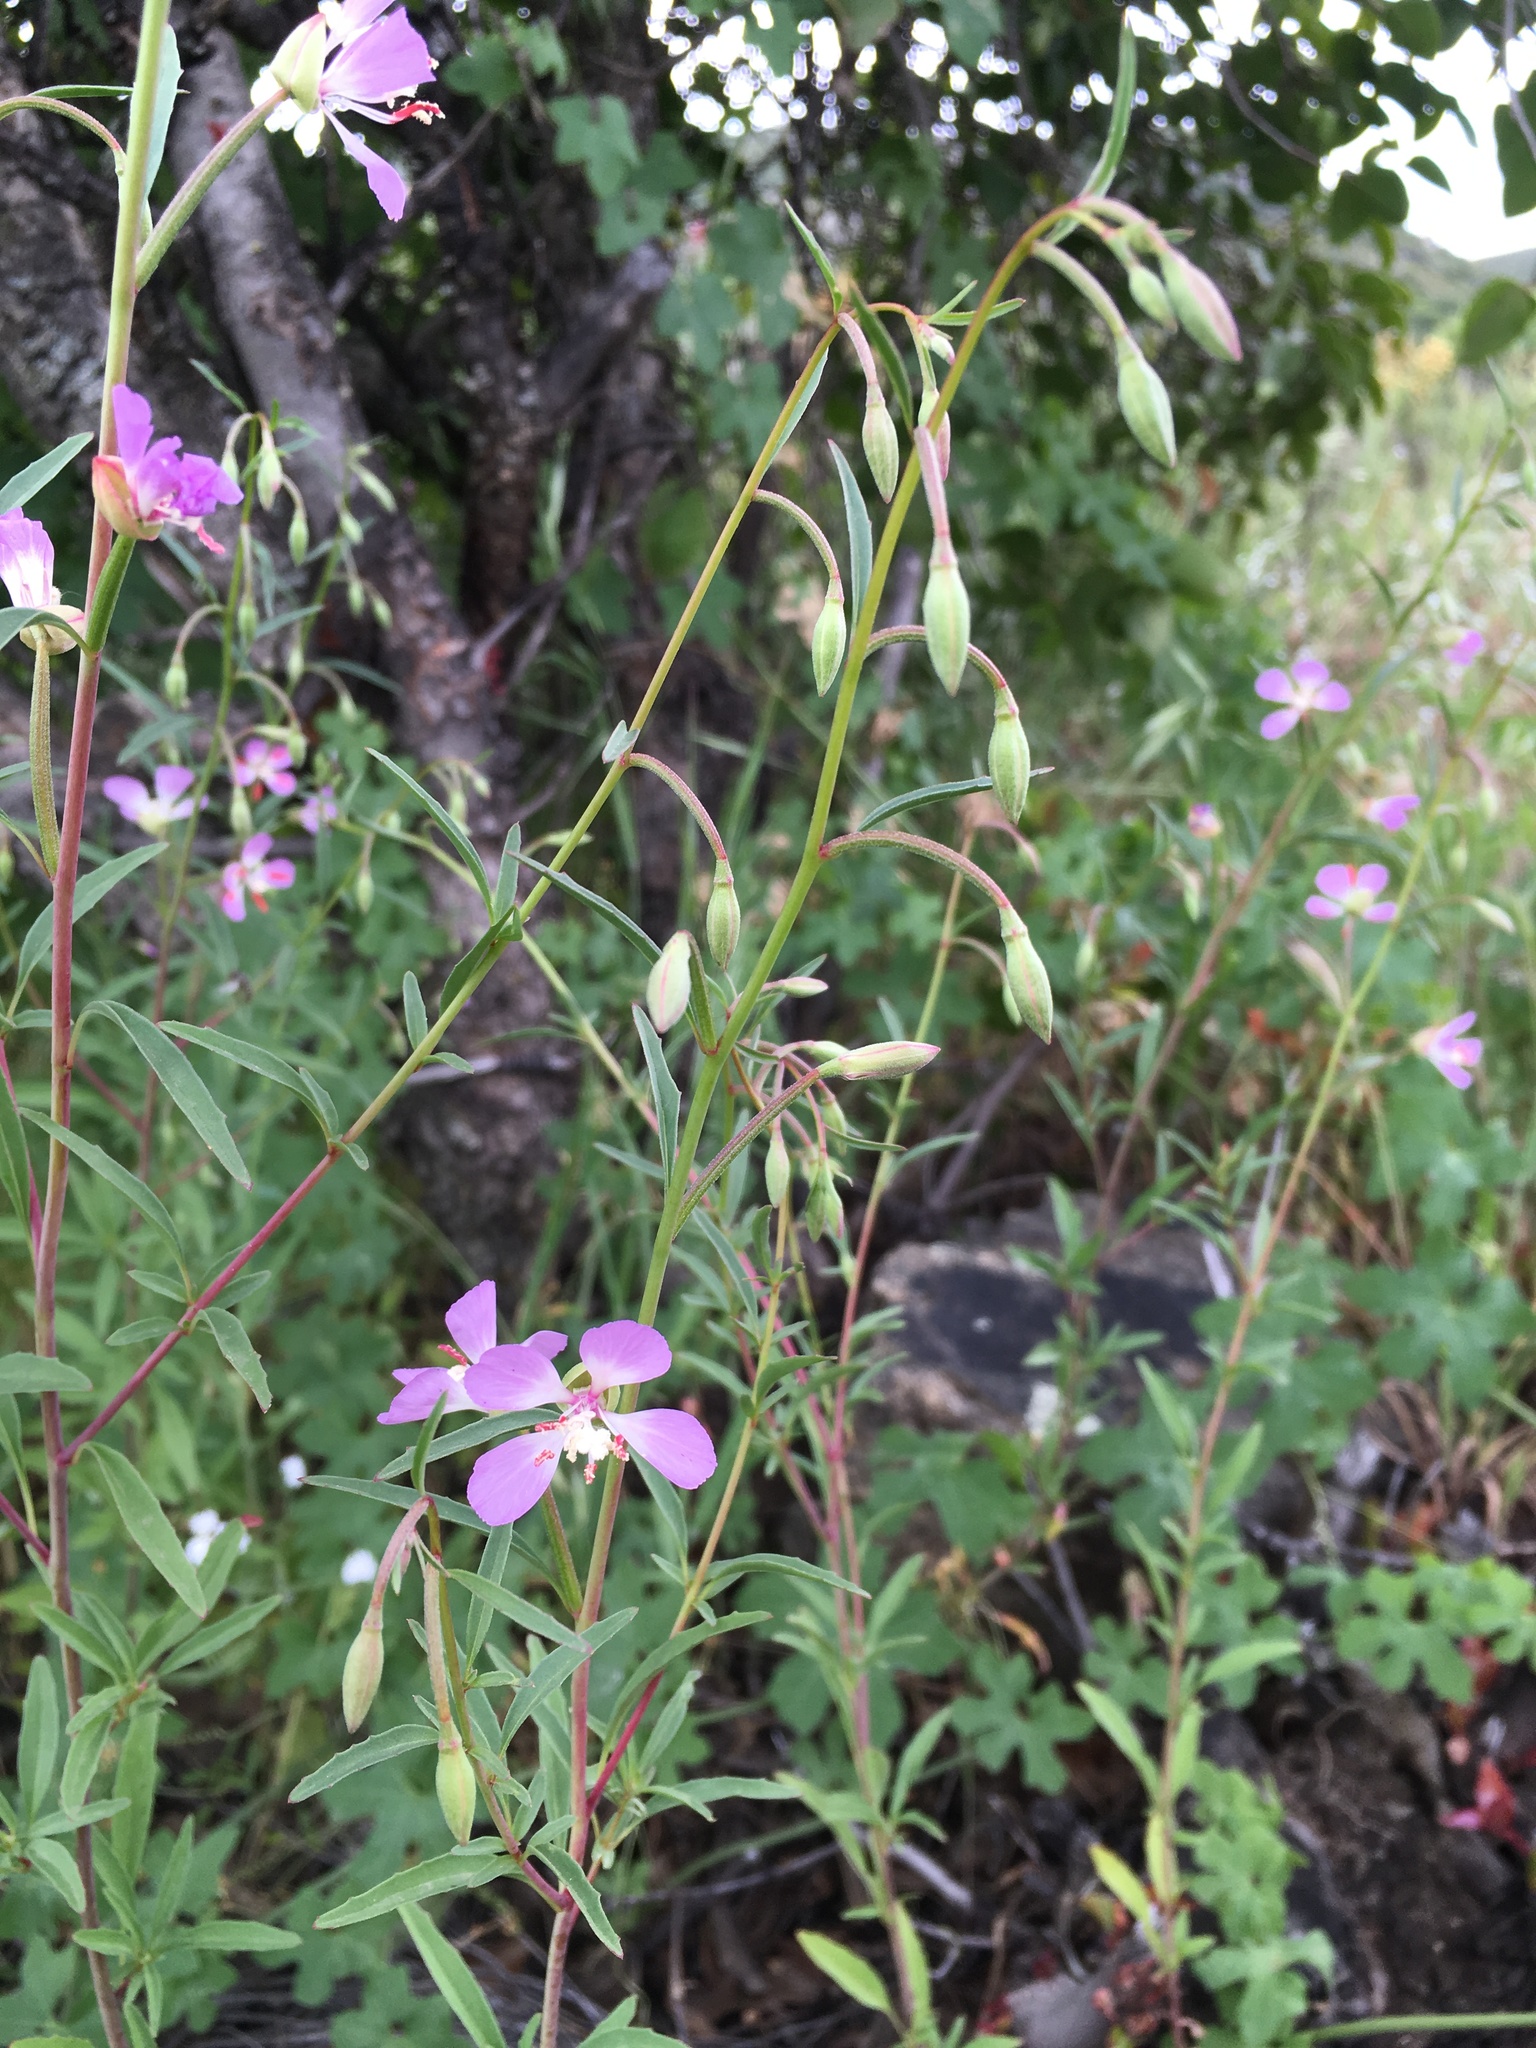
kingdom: Plantae
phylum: Tracheophyta
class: Magnoliopsida
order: Myrtales
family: Onagraceae
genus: Clarkia
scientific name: Clarkia delicata
